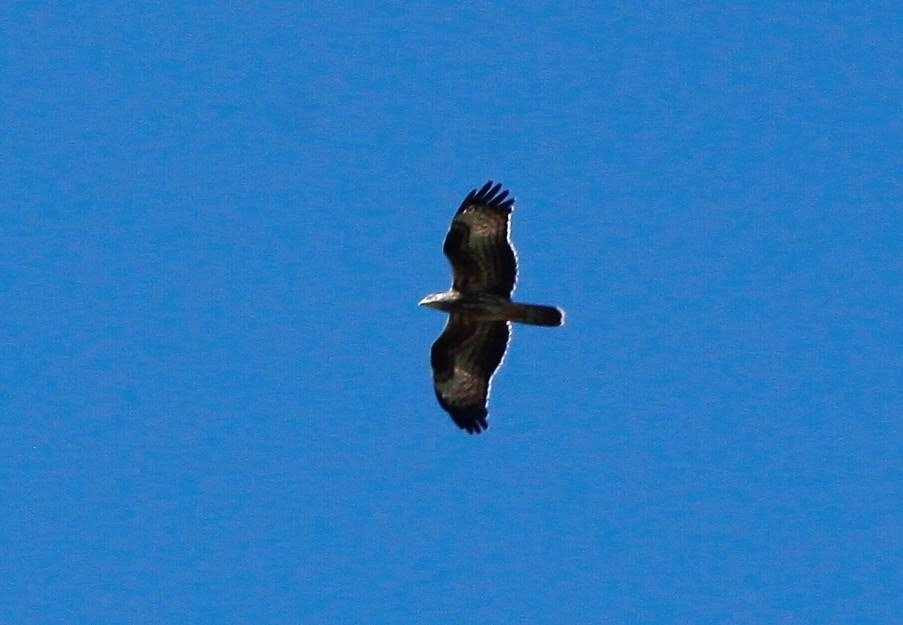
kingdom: Animalia
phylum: Chordata
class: Aves
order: Accipitriformes
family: Accipitridae
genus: Pernis
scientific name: Pernis apivorus
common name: European honey buzzard
